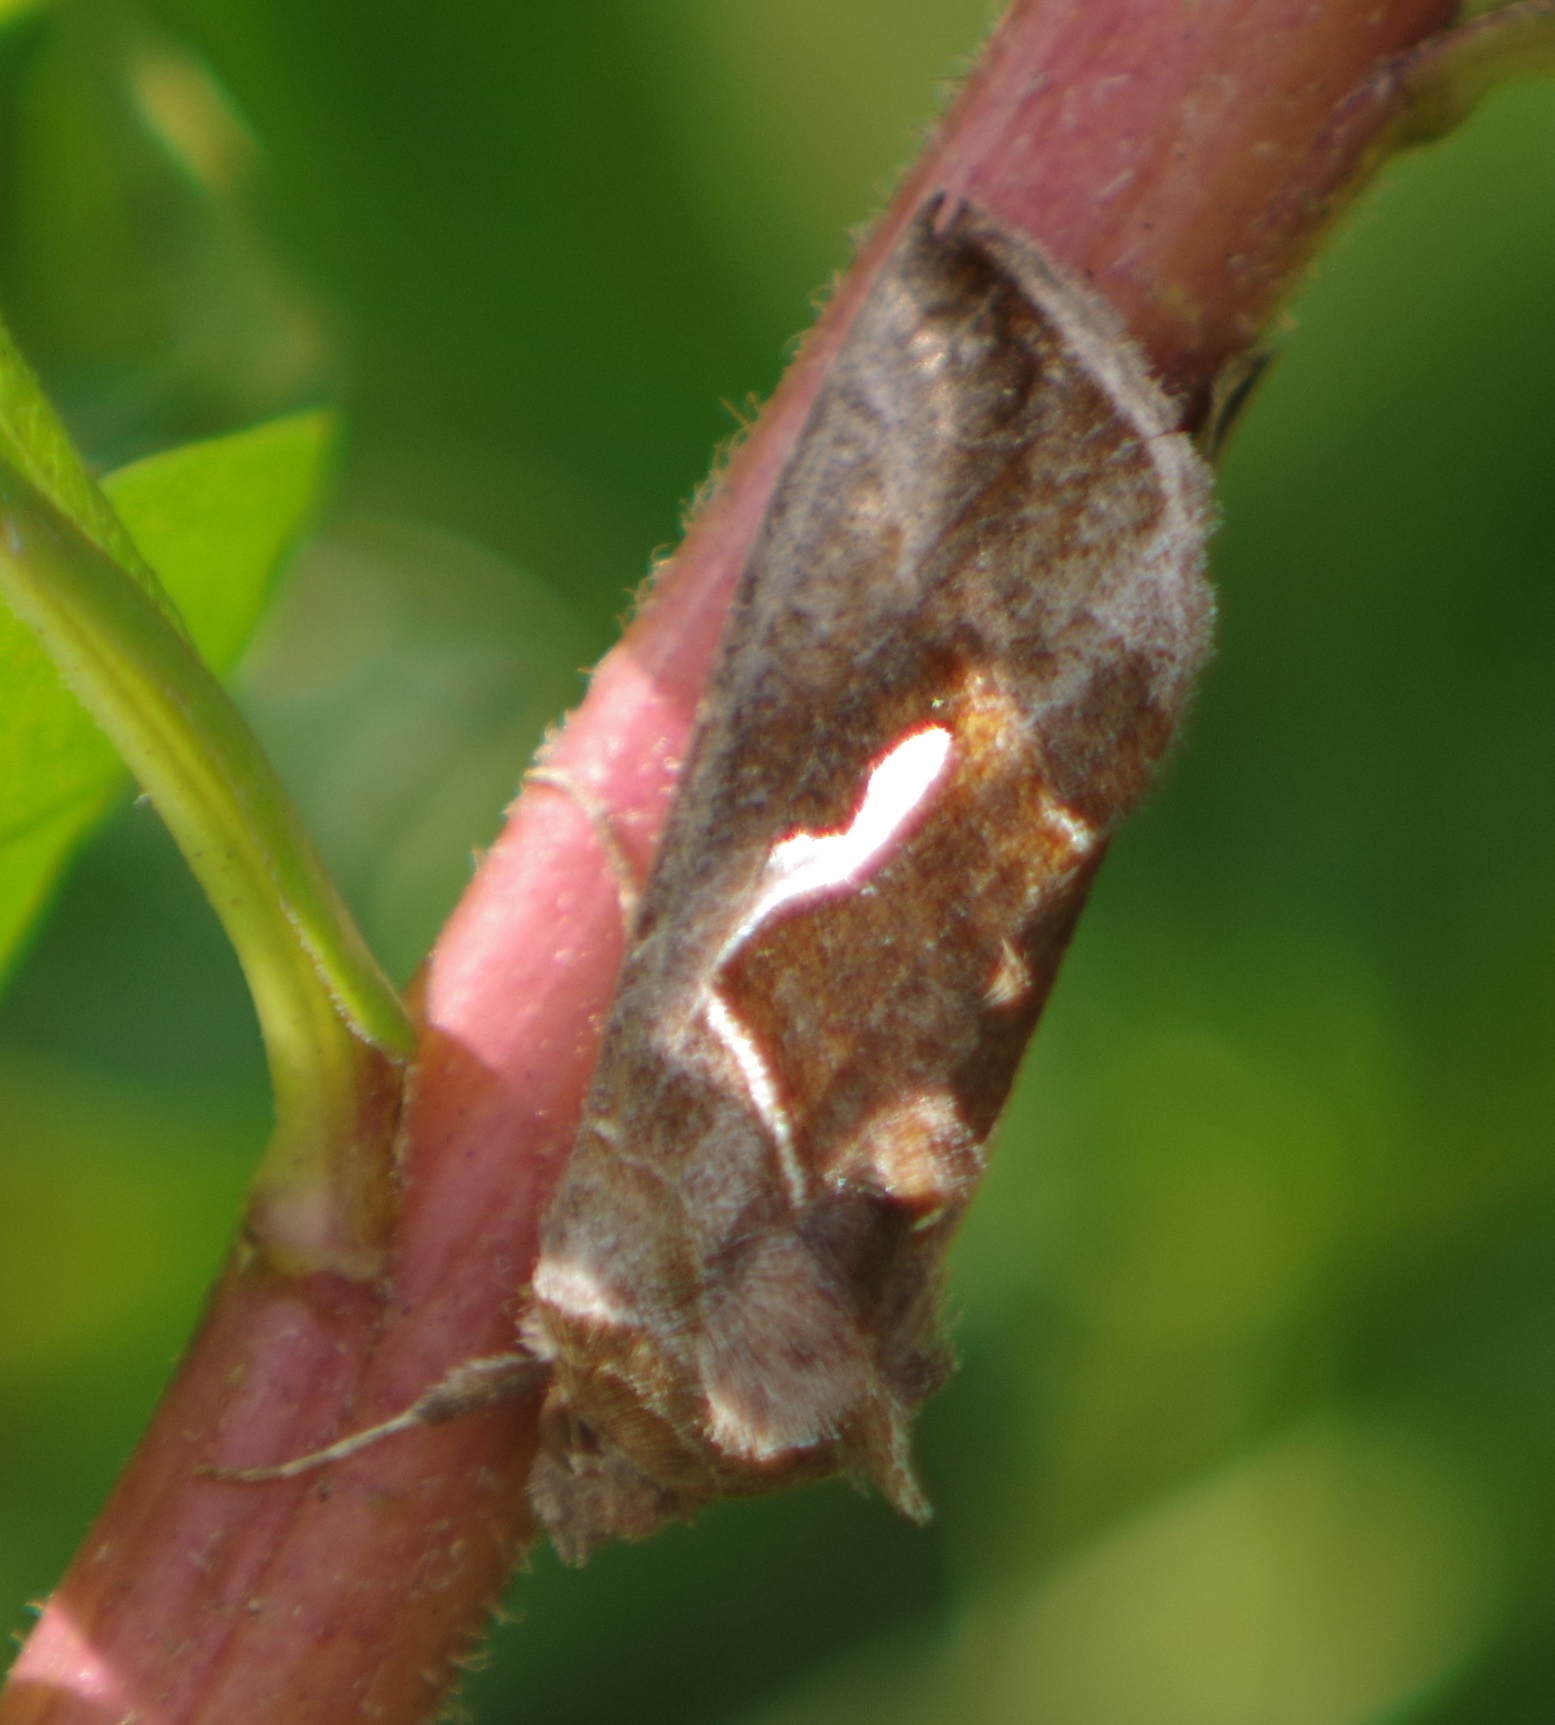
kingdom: Animalia
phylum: Arthropoda
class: Insecta
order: Lepidoptera
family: Noctuidae
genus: Macdunnoughia
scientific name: Macdunnoughia confusa
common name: Dewick's plusia
